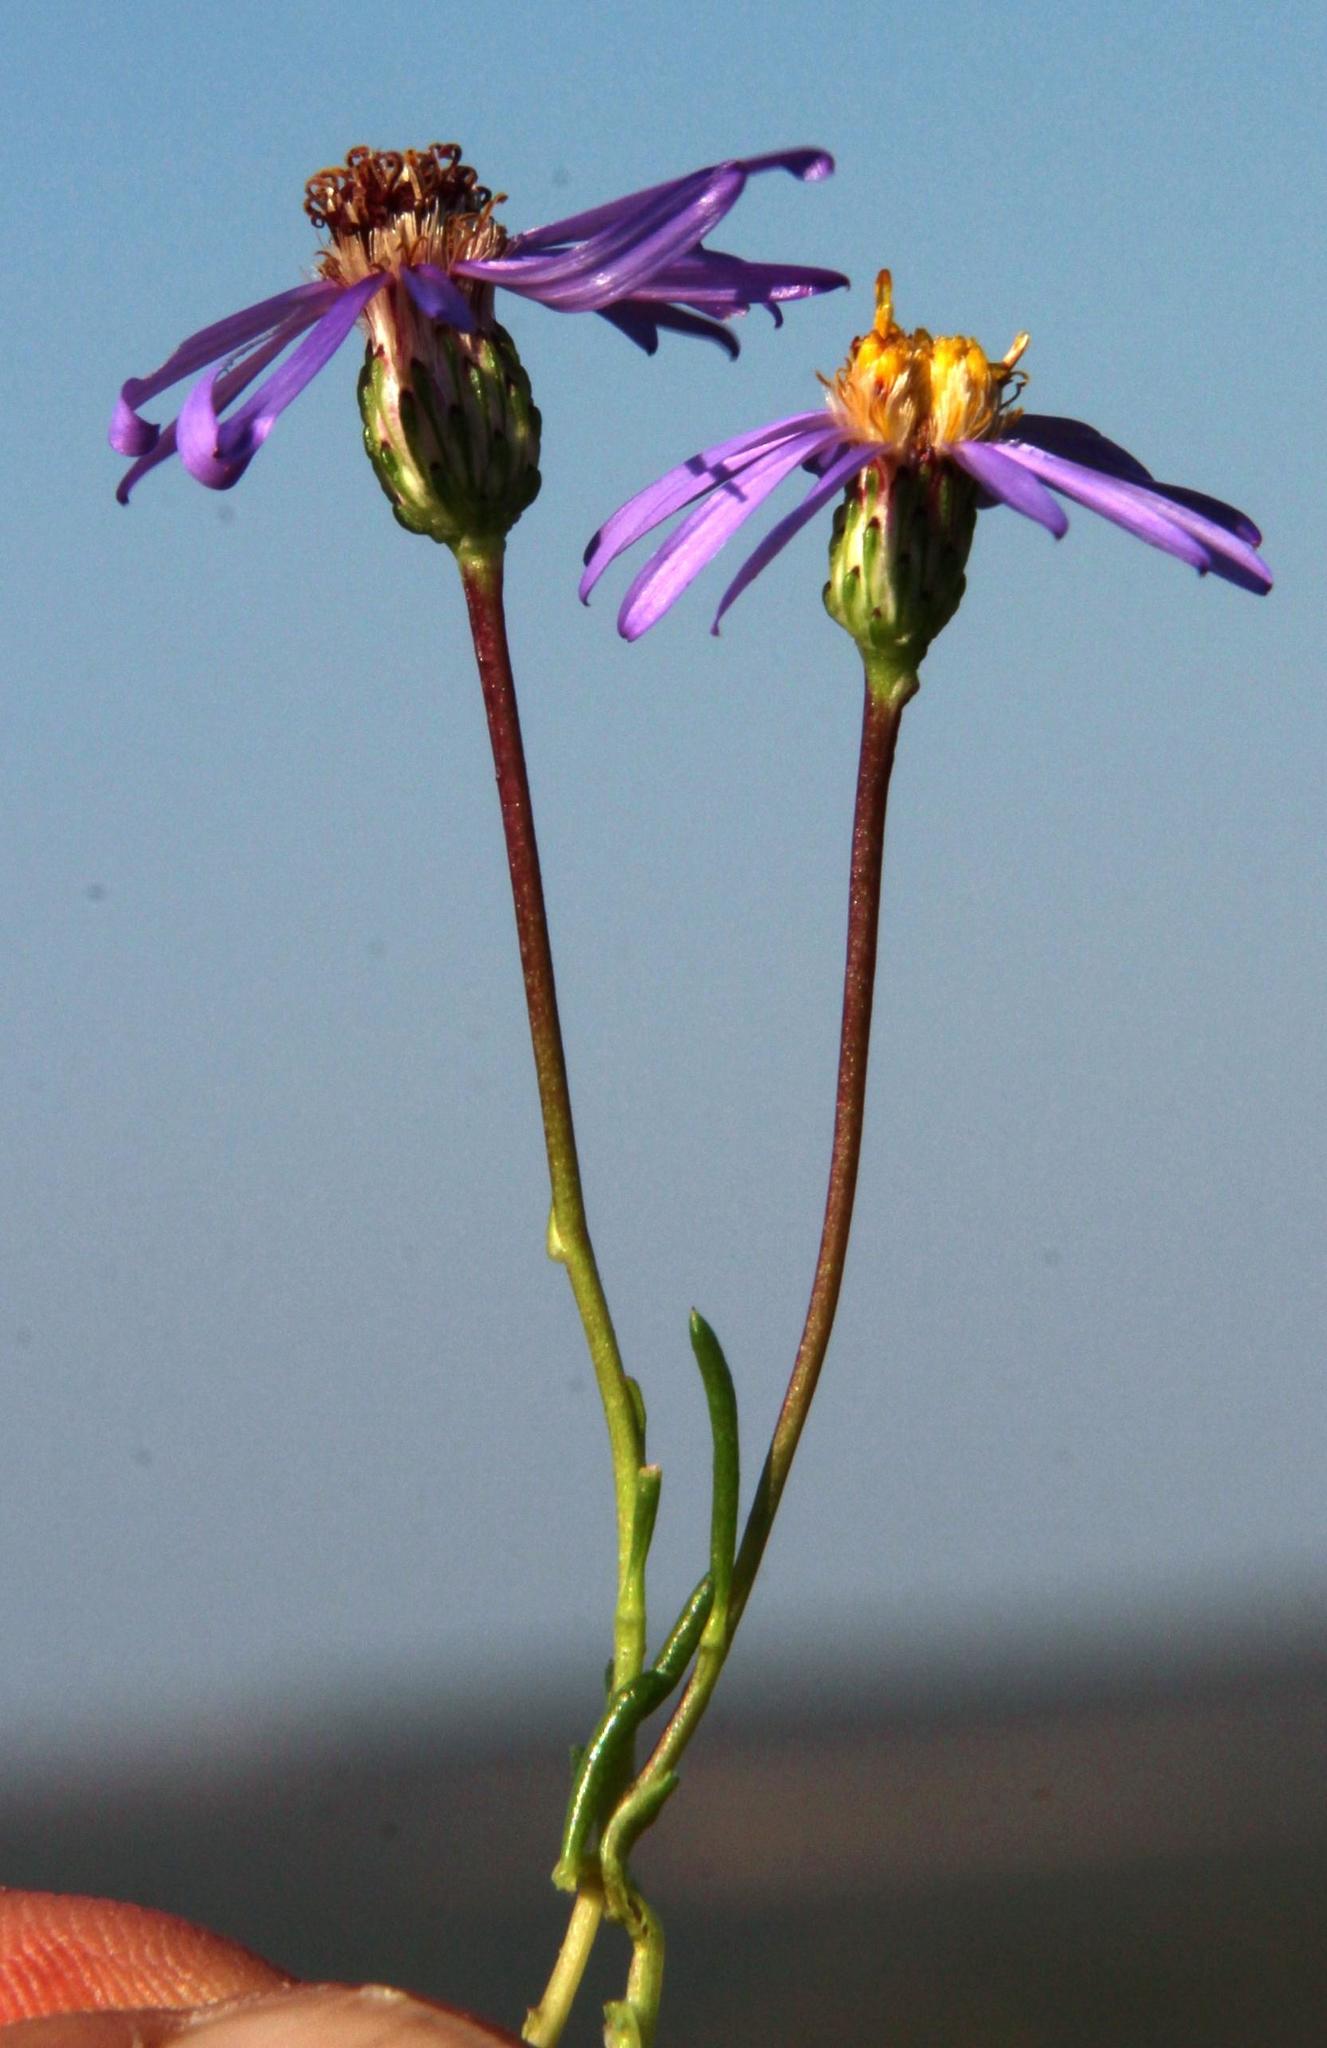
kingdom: Plantae
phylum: Tracheophyta
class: Magnoliopsida
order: Asterales
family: Asteraceae
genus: Felicia
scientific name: Felicia filifolia
